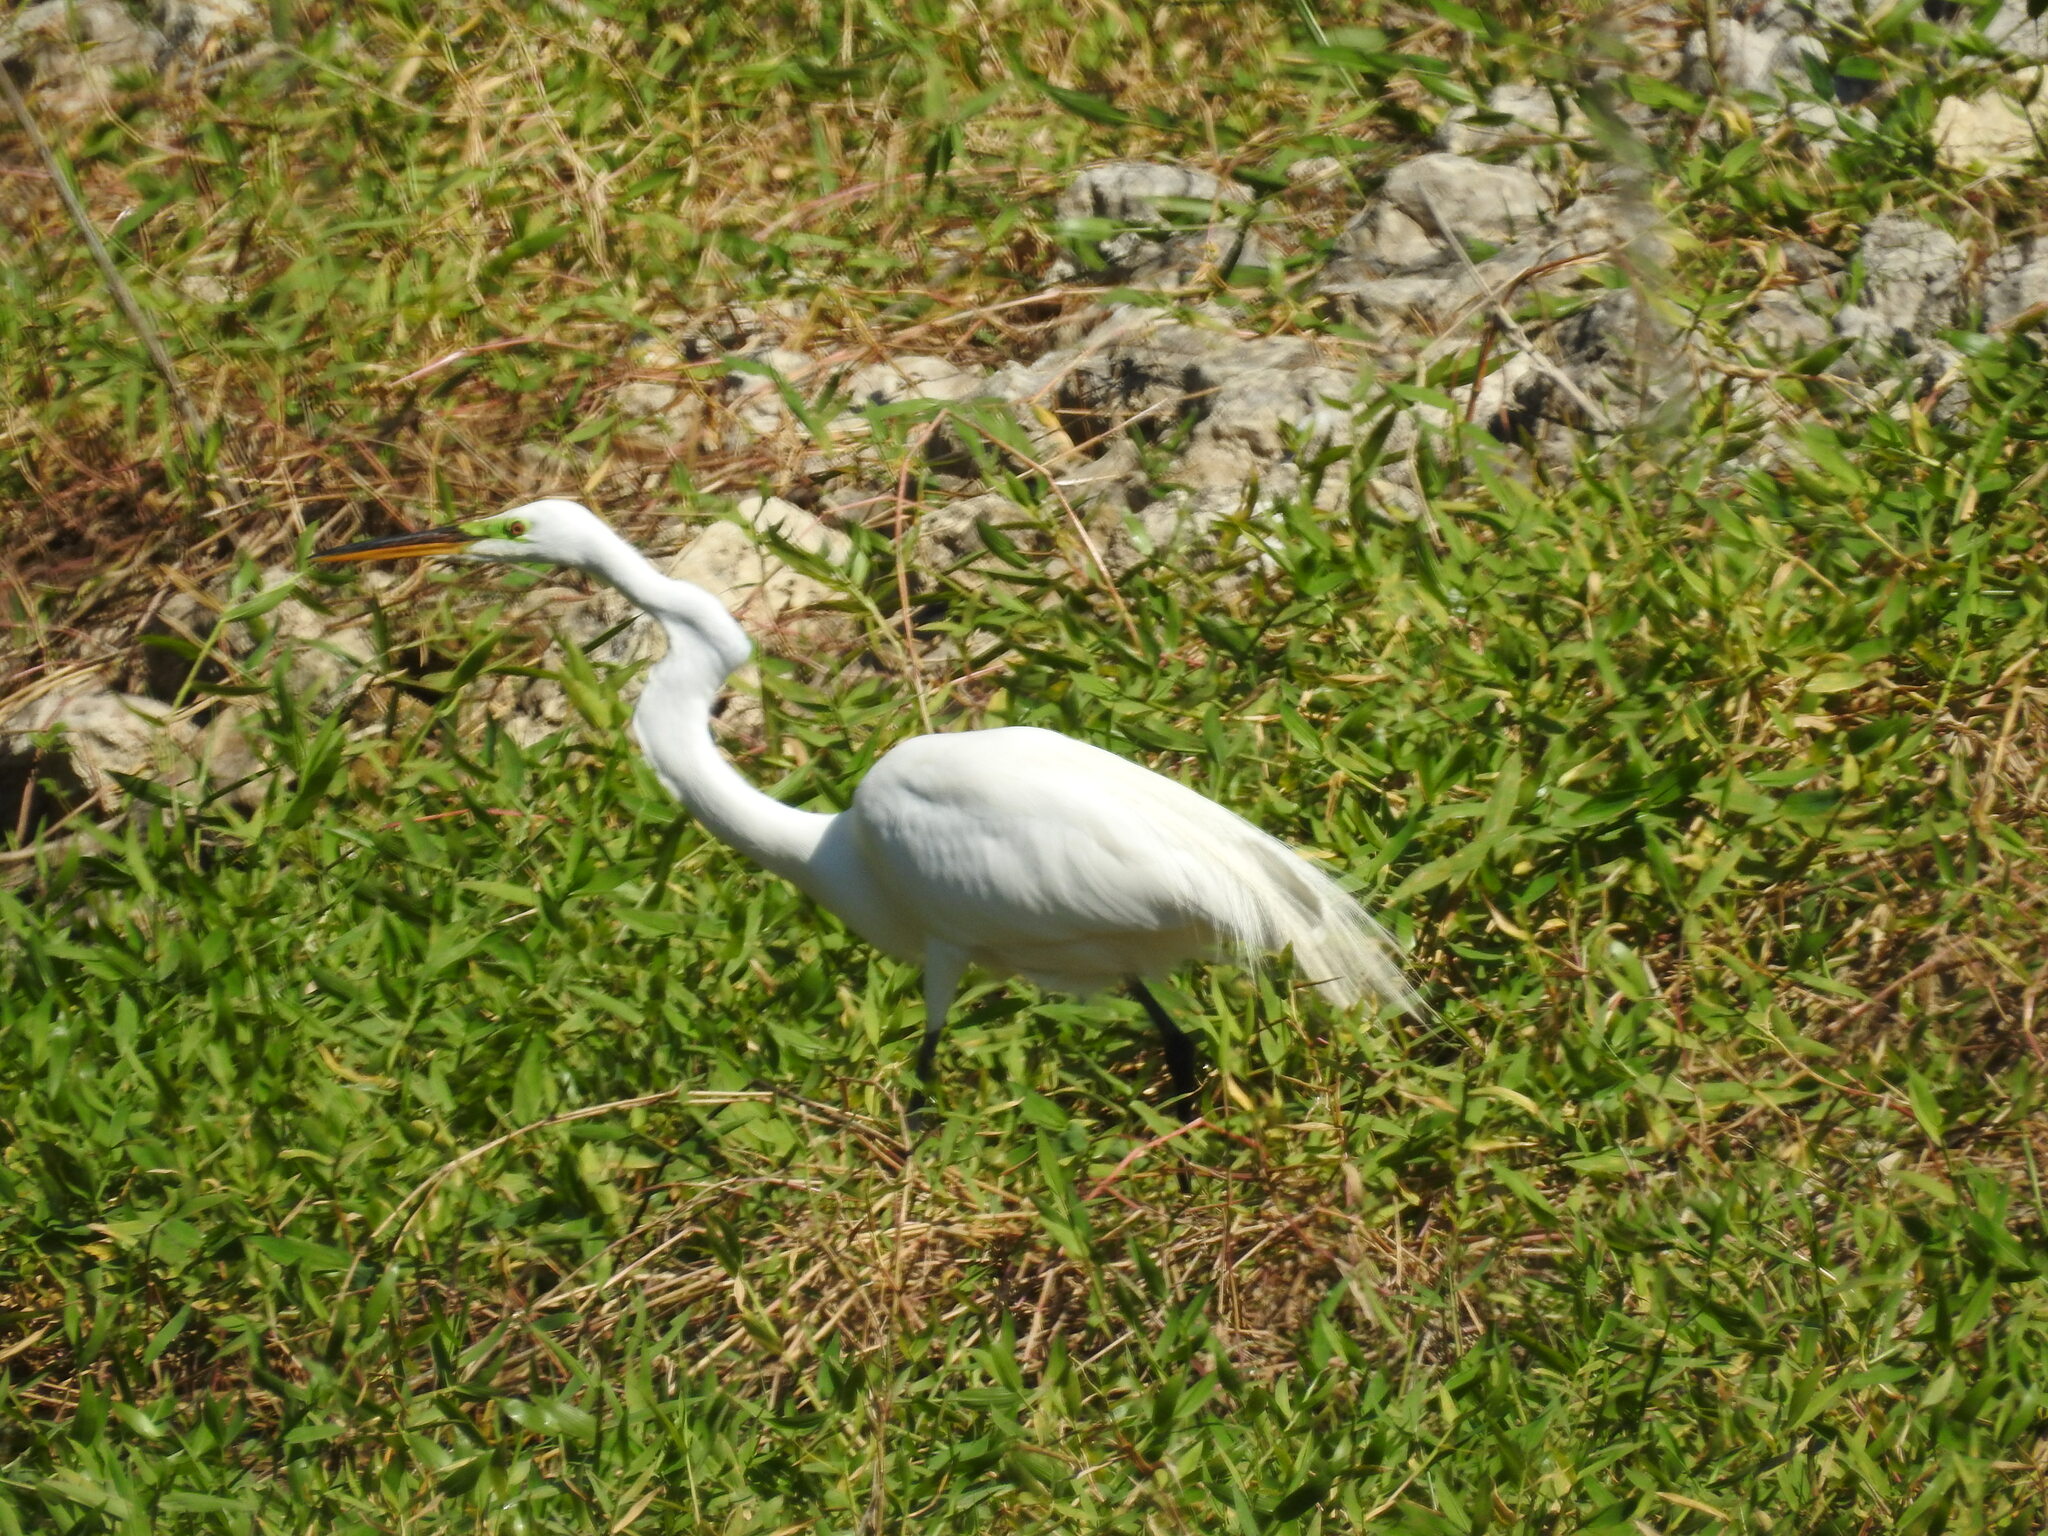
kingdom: Animalia
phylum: Chordata
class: Aves
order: Pelecaniformes
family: Ardeidae
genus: Ardea
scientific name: Ardea alba
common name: Great egret
